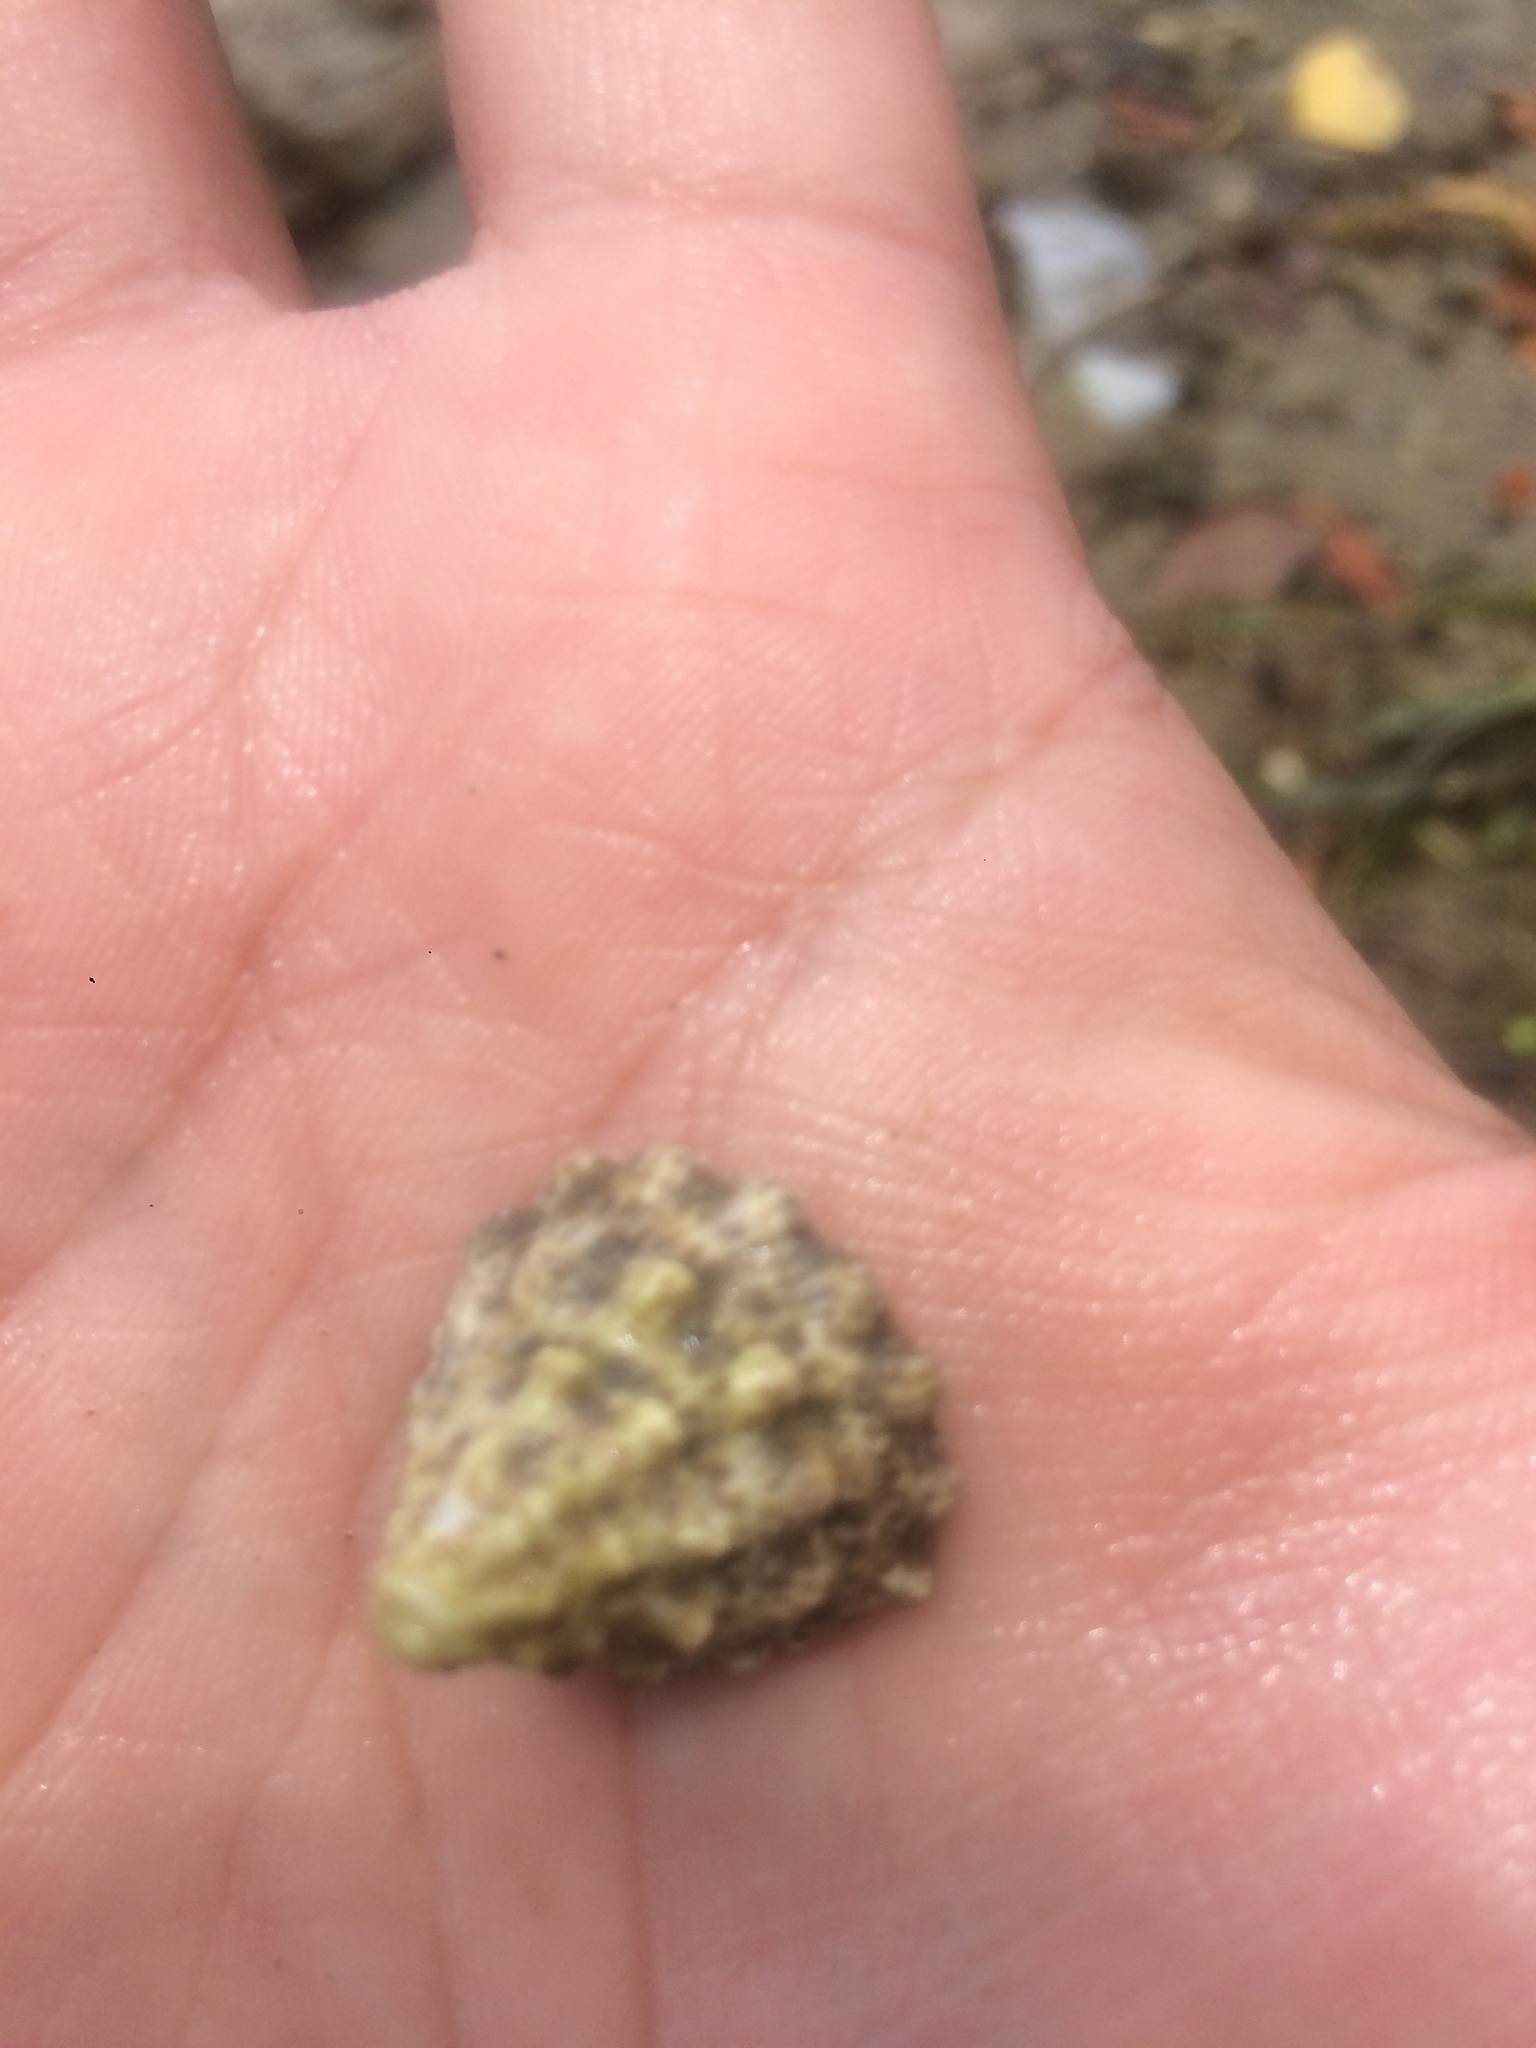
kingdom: Animalia
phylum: Mollusca
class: Gastropoda
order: Trochida
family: Tegulidae
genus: Tectus
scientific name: Tectus fenestratus
